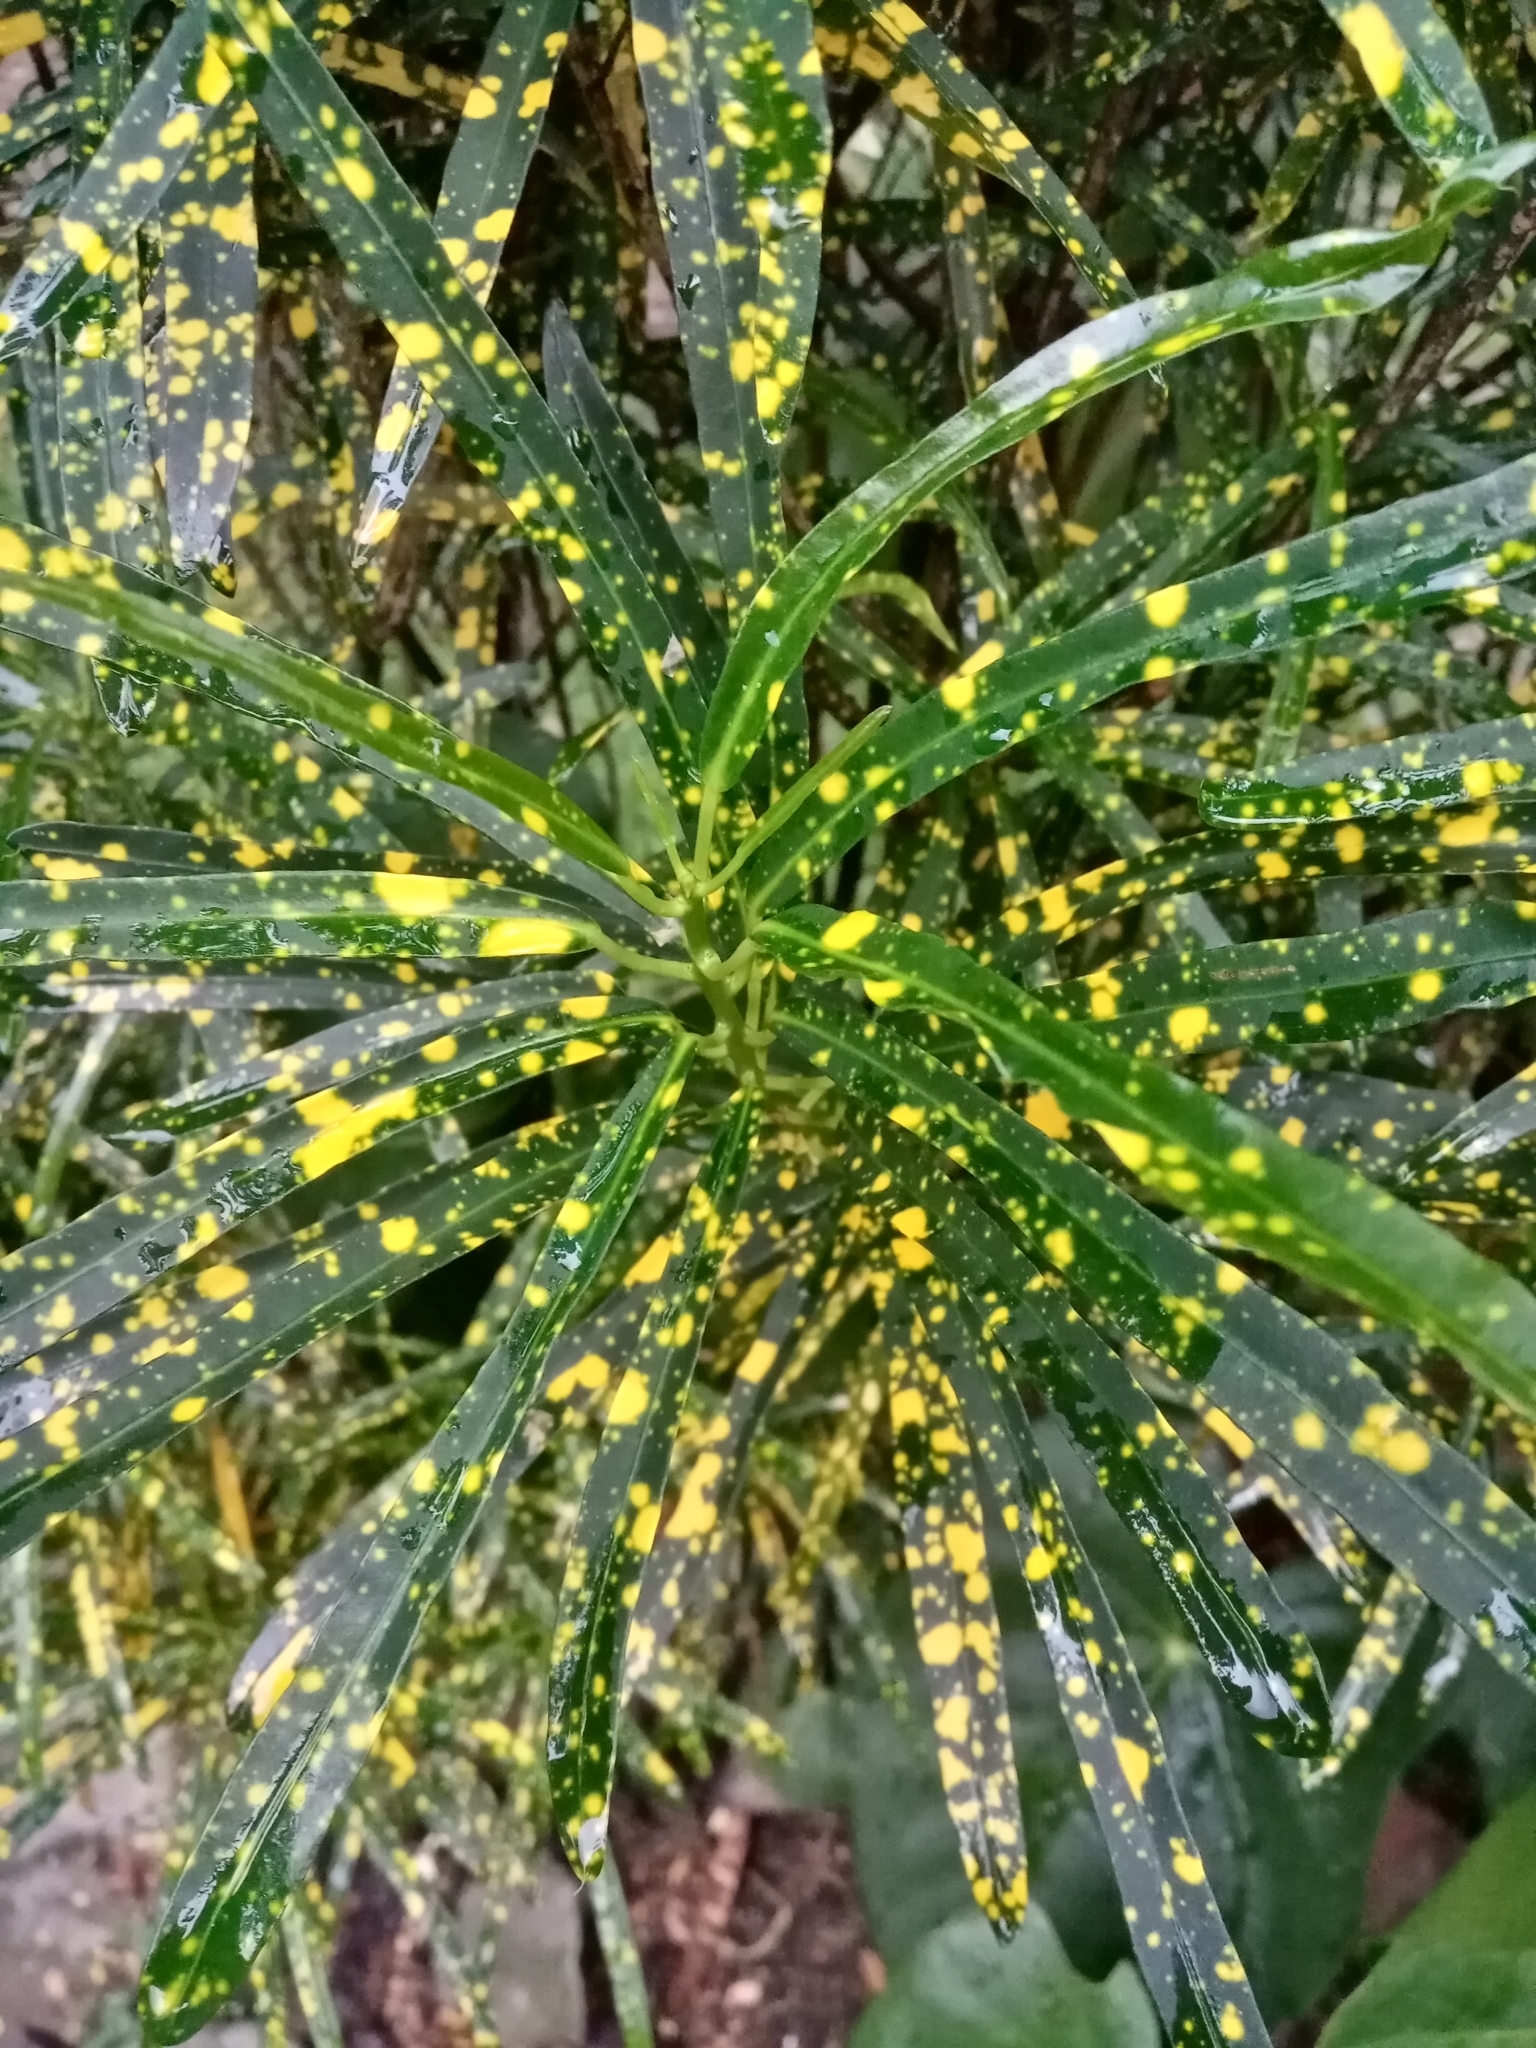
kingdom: Plantae
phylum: Tracheophyta
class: Magnoliopsida
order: Malpighiales
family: Euphorbiaceae
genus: Codiaeum
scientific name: Codiaeum variegatum
